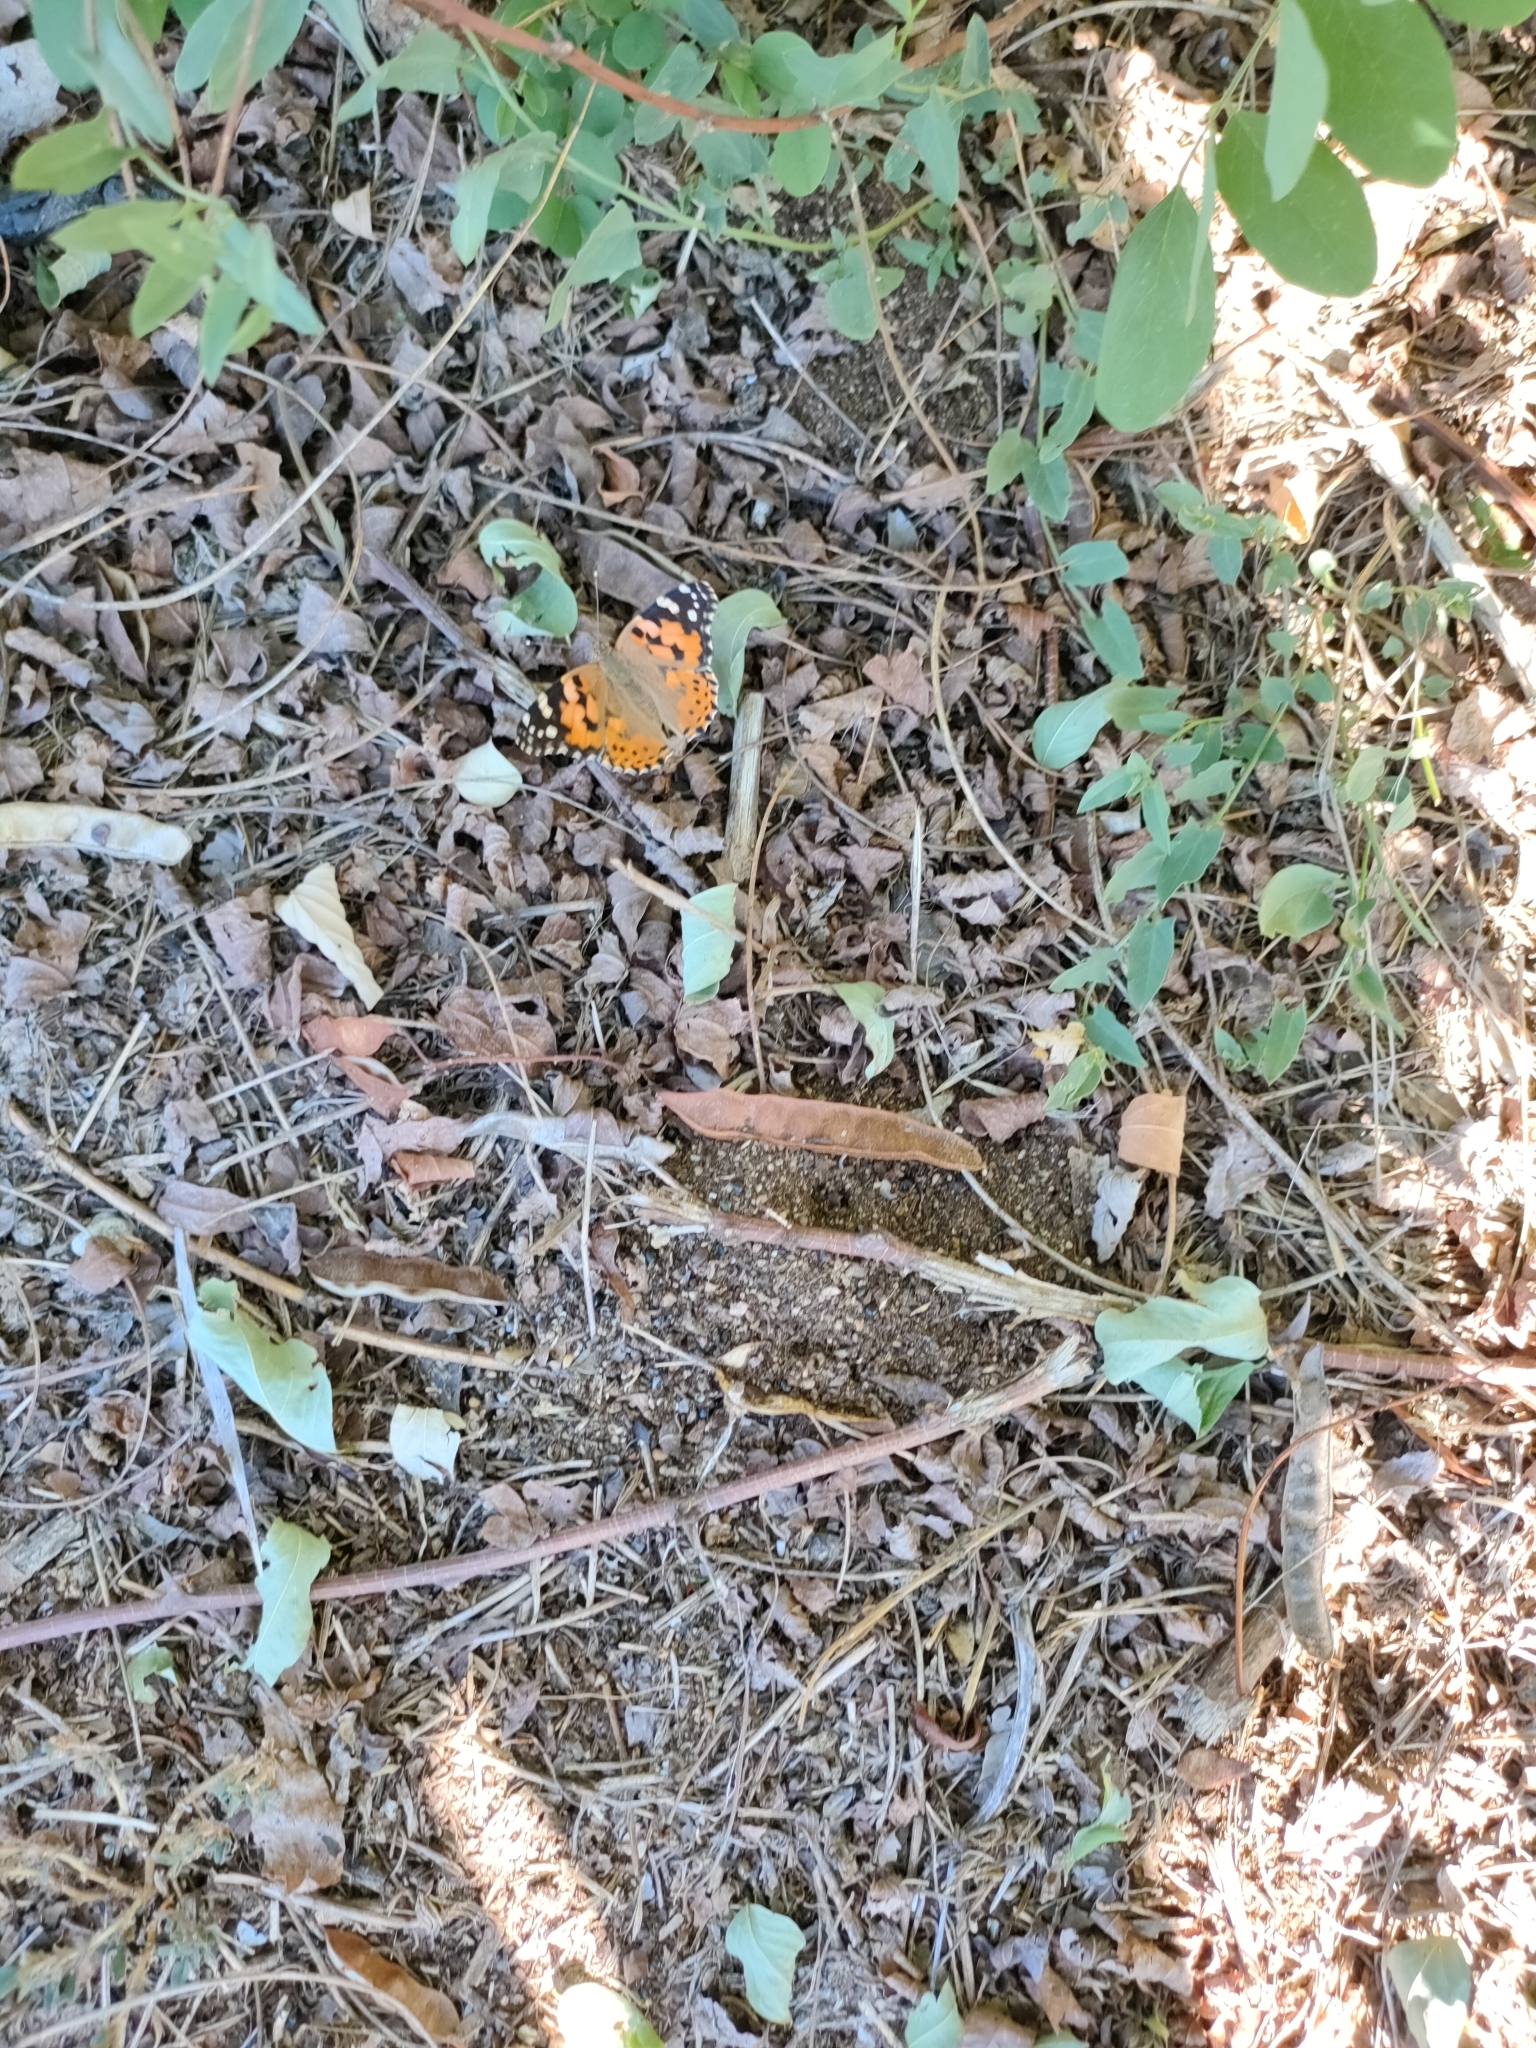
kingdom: Animalia
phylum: Arthropoda
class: Insecta
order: Lepidoptera
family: Nymphalidae
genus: Vanessa
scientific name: Vanessa cardui
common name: Painted lady
